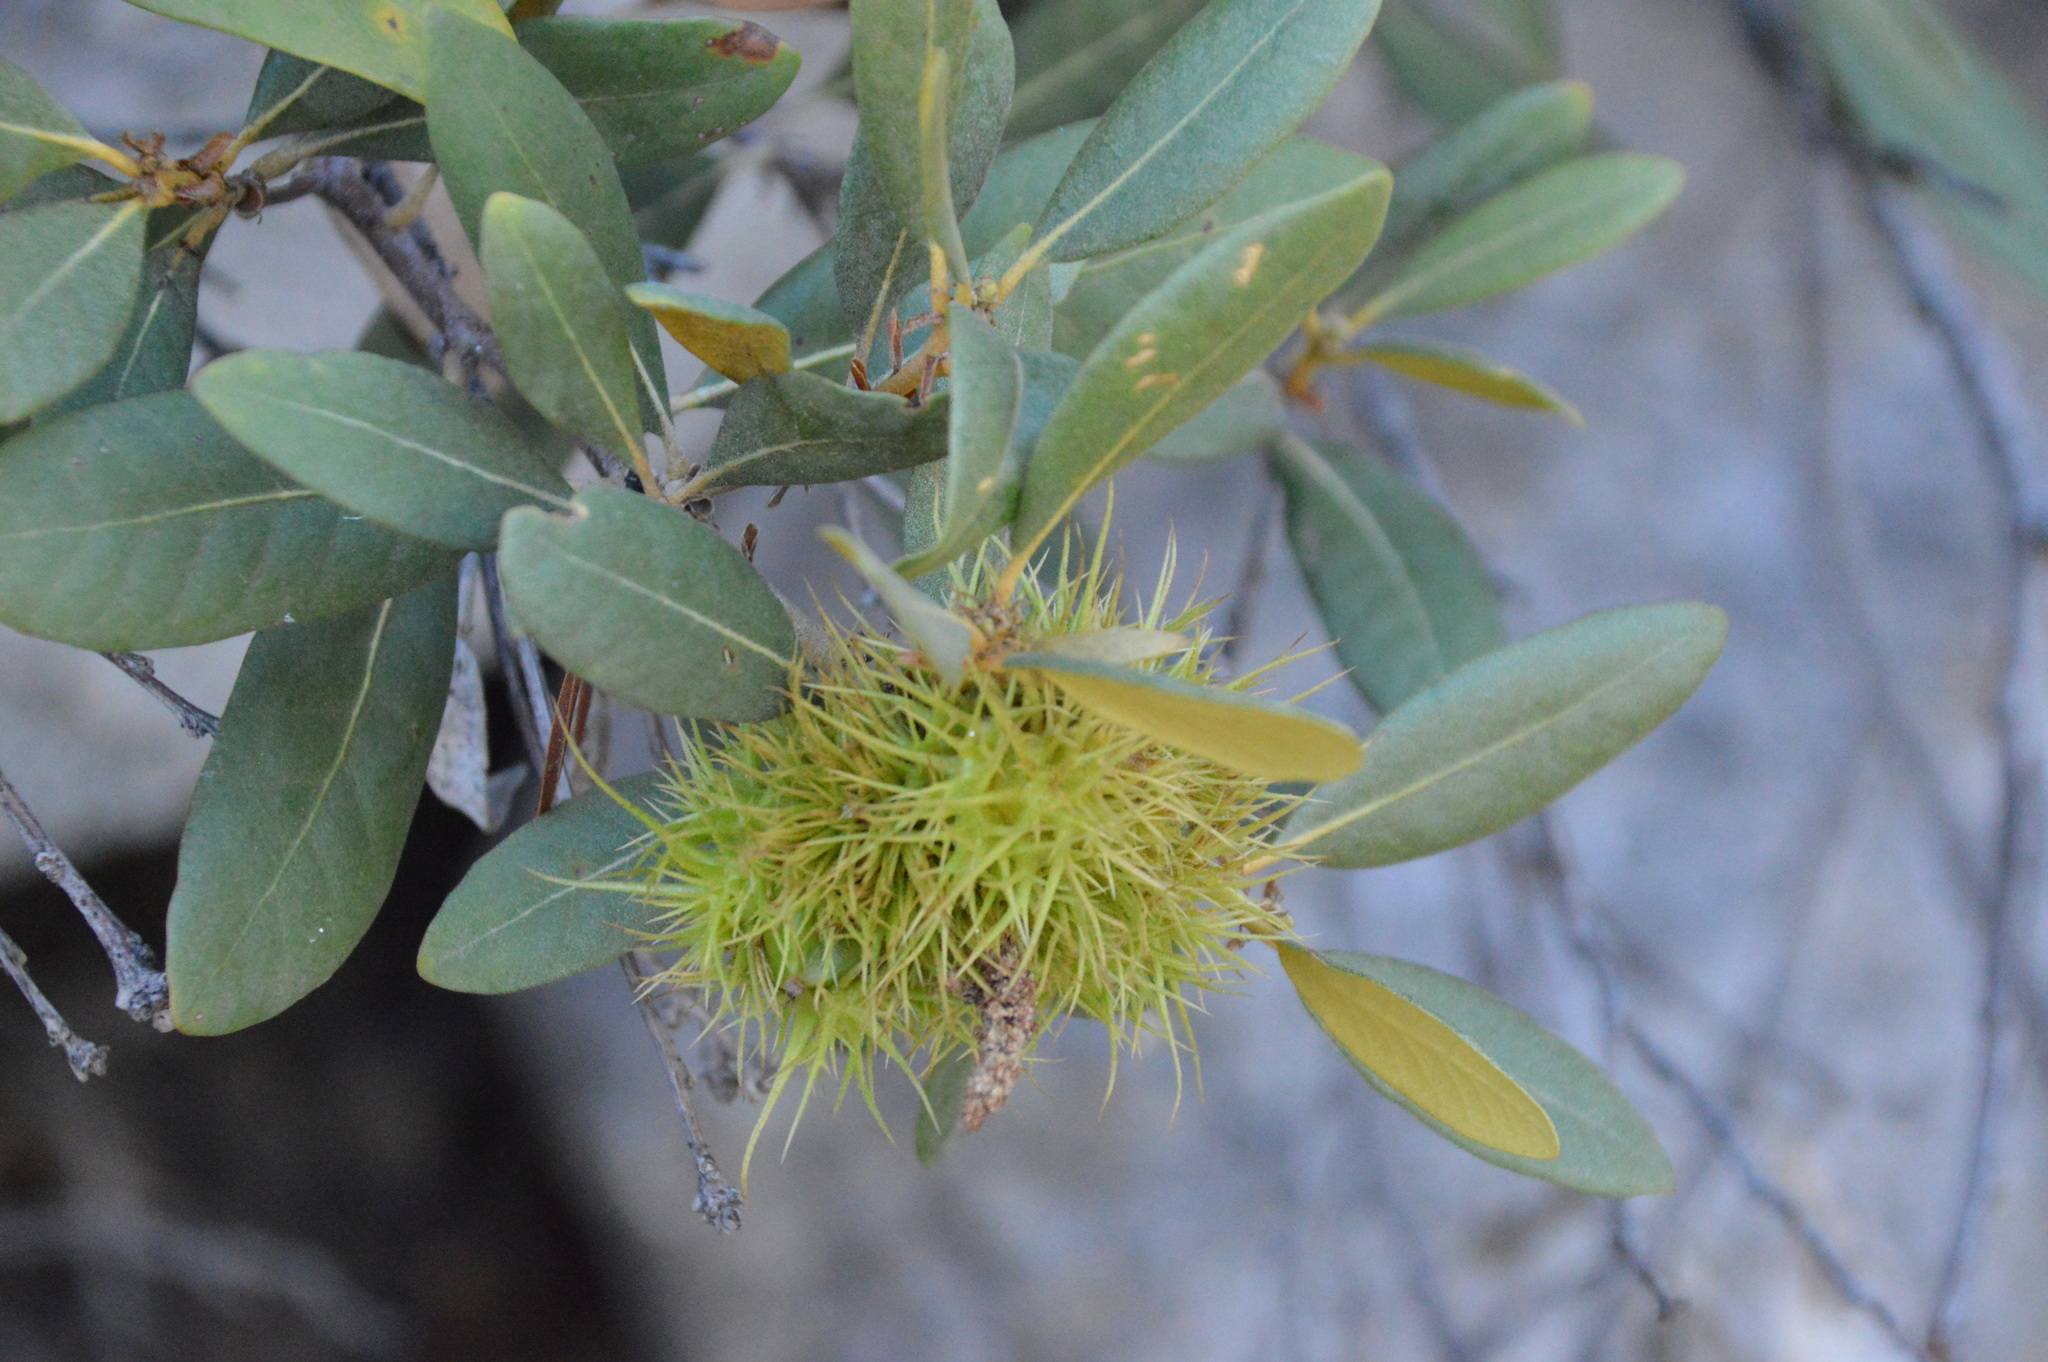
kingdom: Plantae
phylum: Tracheophyta
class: Magnoliopsida
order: Fagales
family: Fagaceae
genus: Chrysolepis
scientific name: Chrysolepis sempervirens
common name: Bush chinquapin
